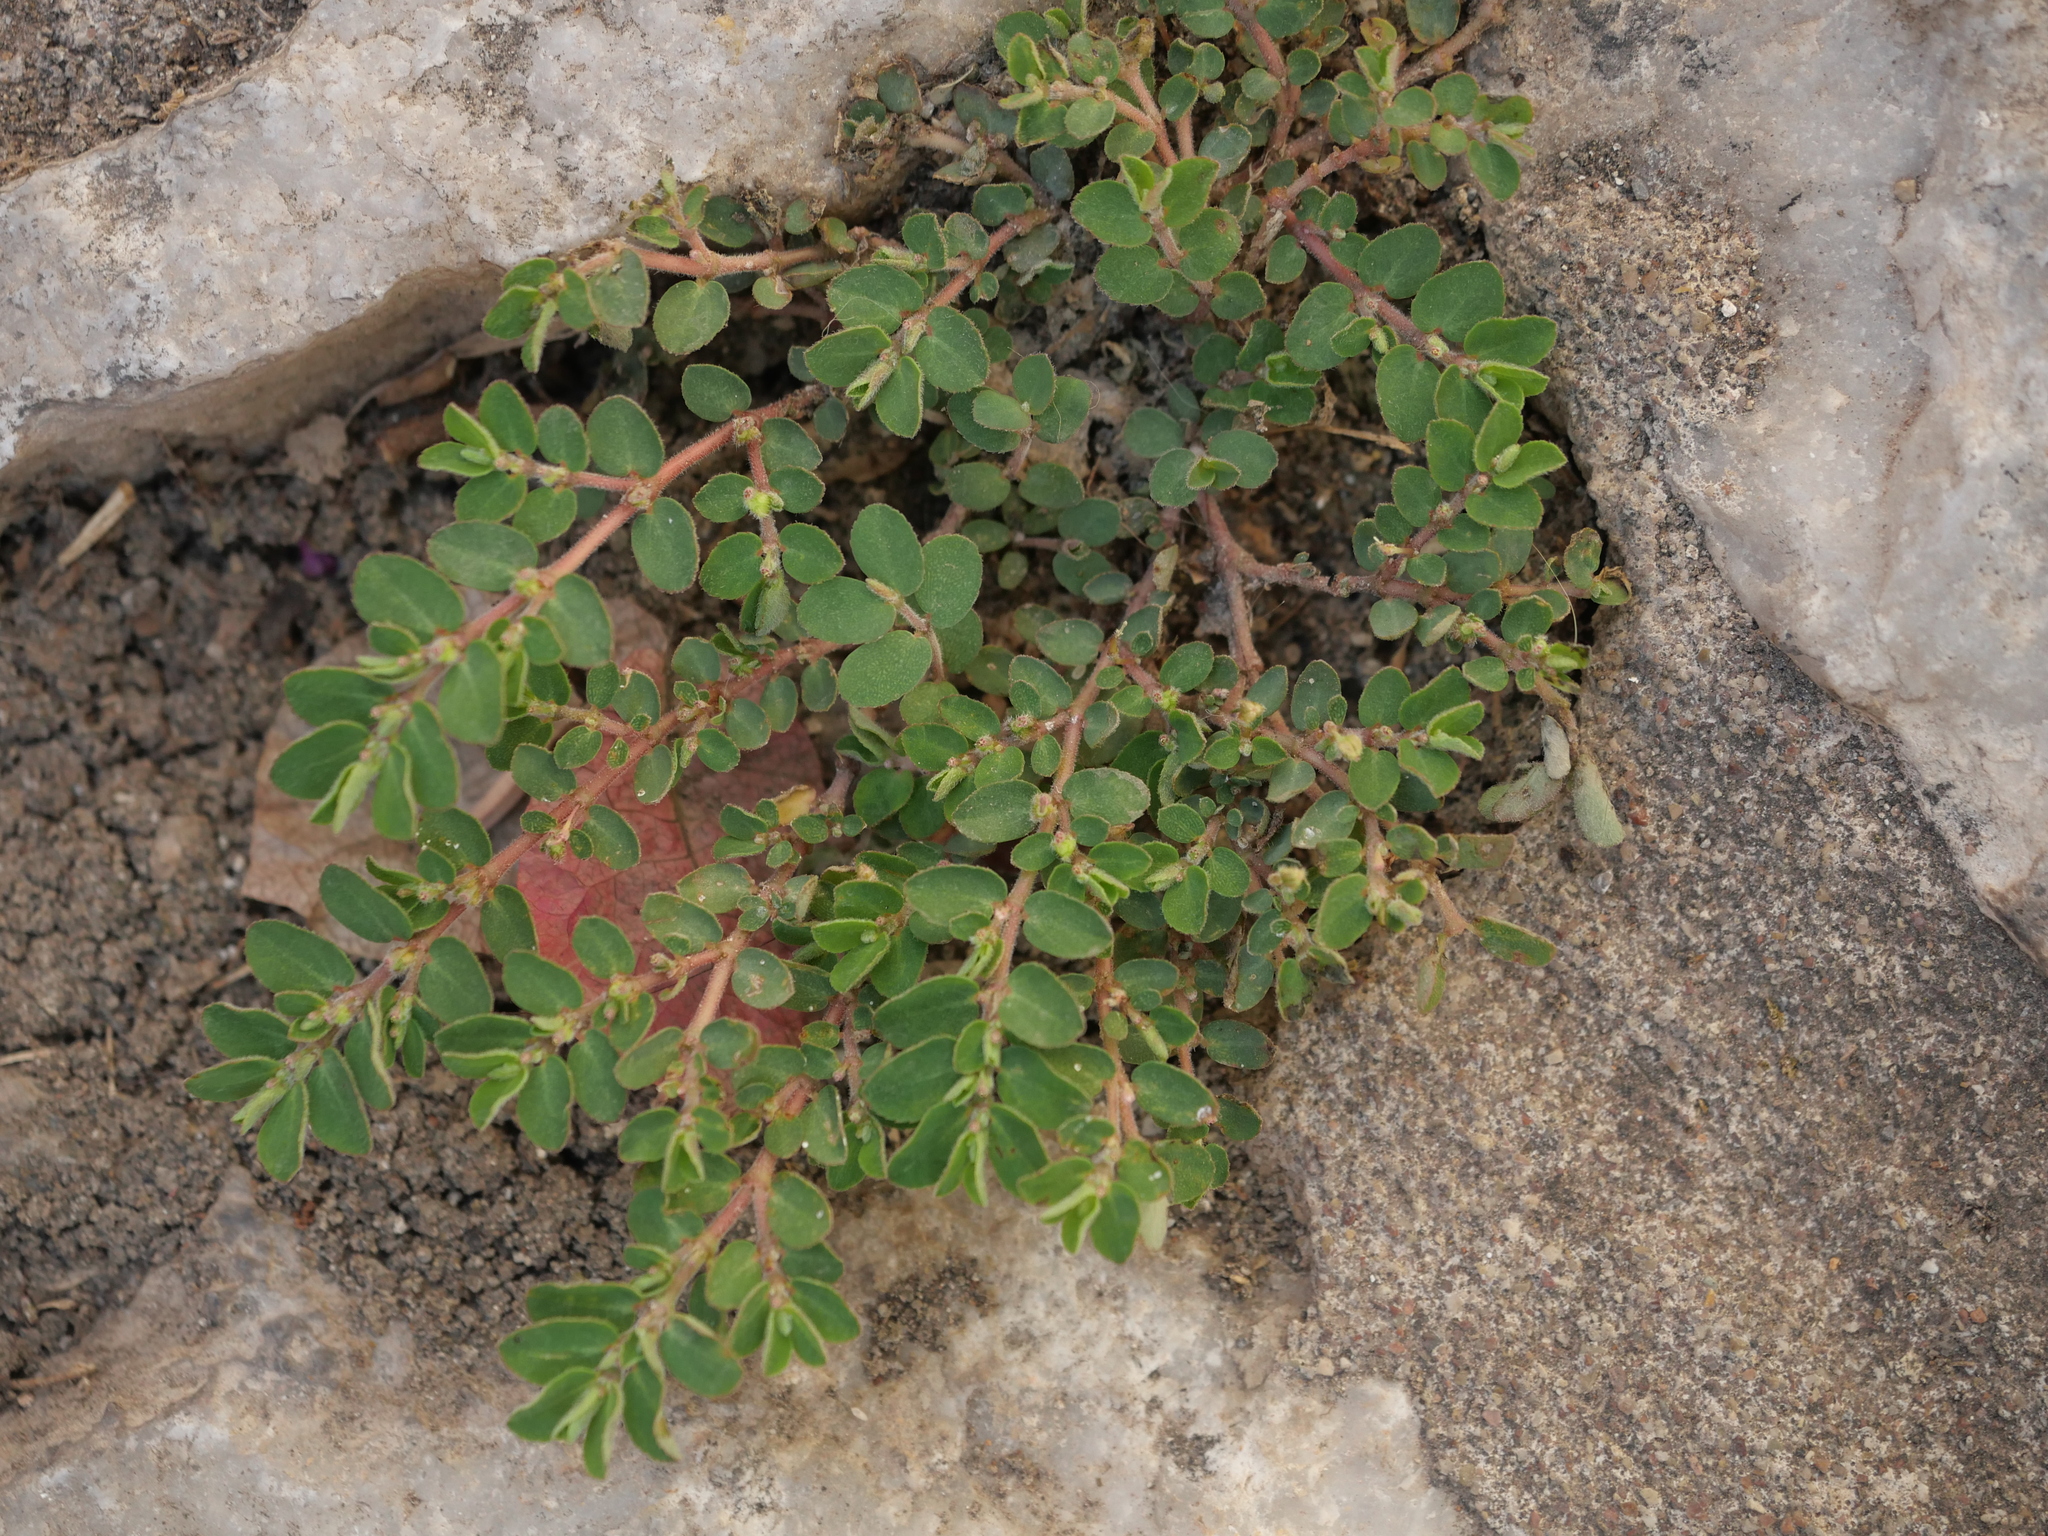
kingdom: Plantae
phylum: Tracheophyta
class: Magnoliopsida
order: Malpighiales
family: Euphorbiaceae
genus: Euphorbia
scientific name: Euphorbia prostrata
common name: Prostrate sandmat
